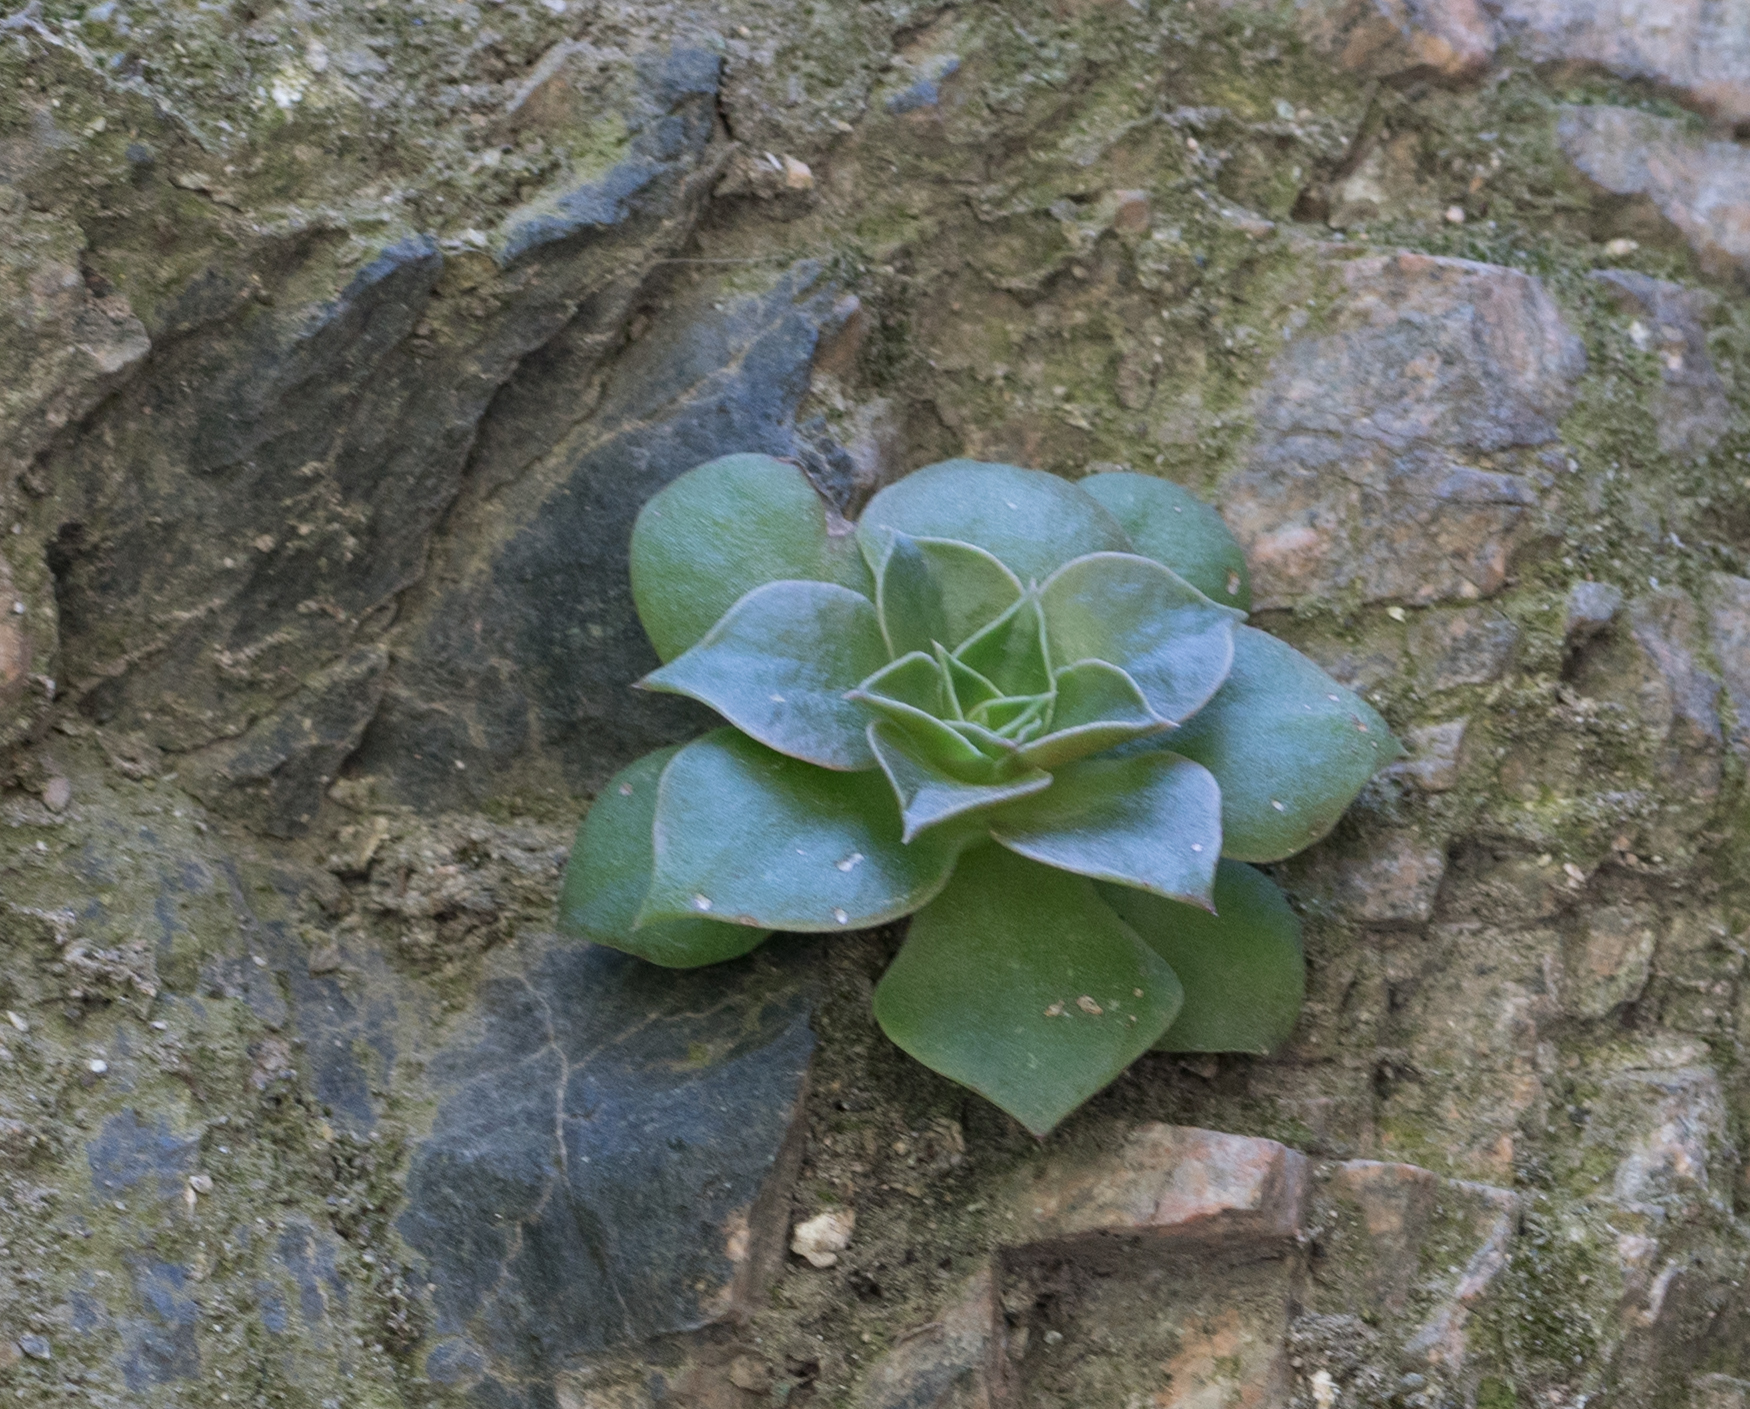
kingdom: Plantae
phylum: Tracheophyta
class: Magnoliopsida
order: Saxifragales
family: Crassulaceae
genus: Dudleya
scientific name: Dudleya cymosa
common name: Canyon dudleya
